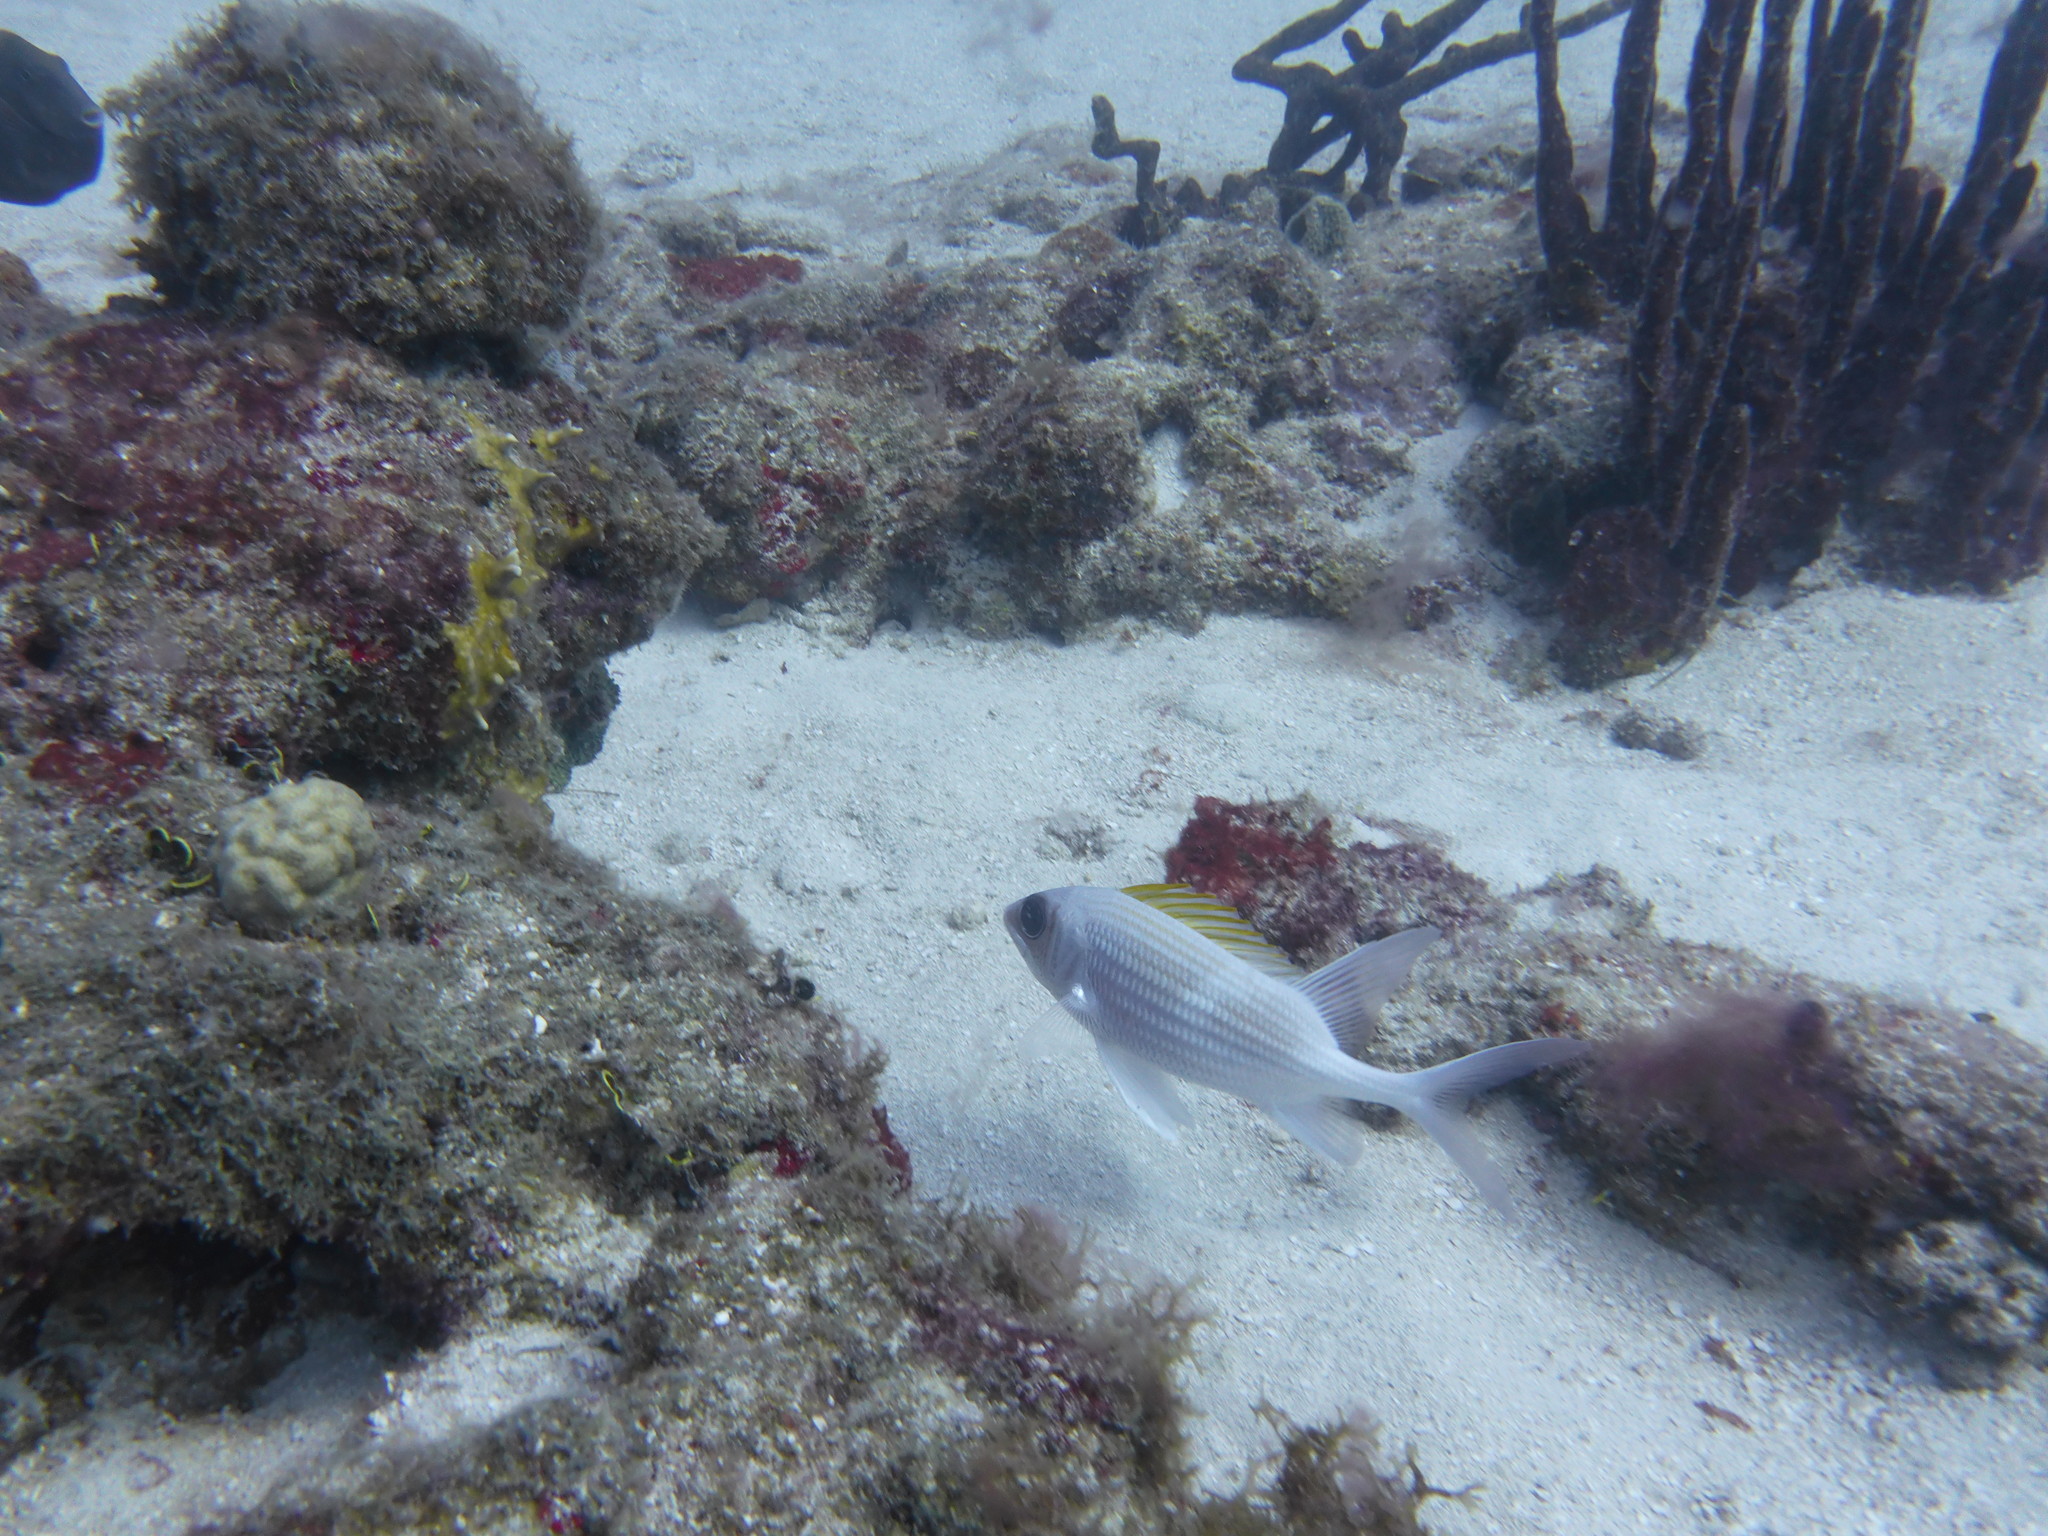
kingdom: Animalia
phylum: Chordata
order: Beryciformes
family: Holocentridae
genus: Holocentrus
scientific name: Holocentrus adscensionis
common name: Squirrelfish
